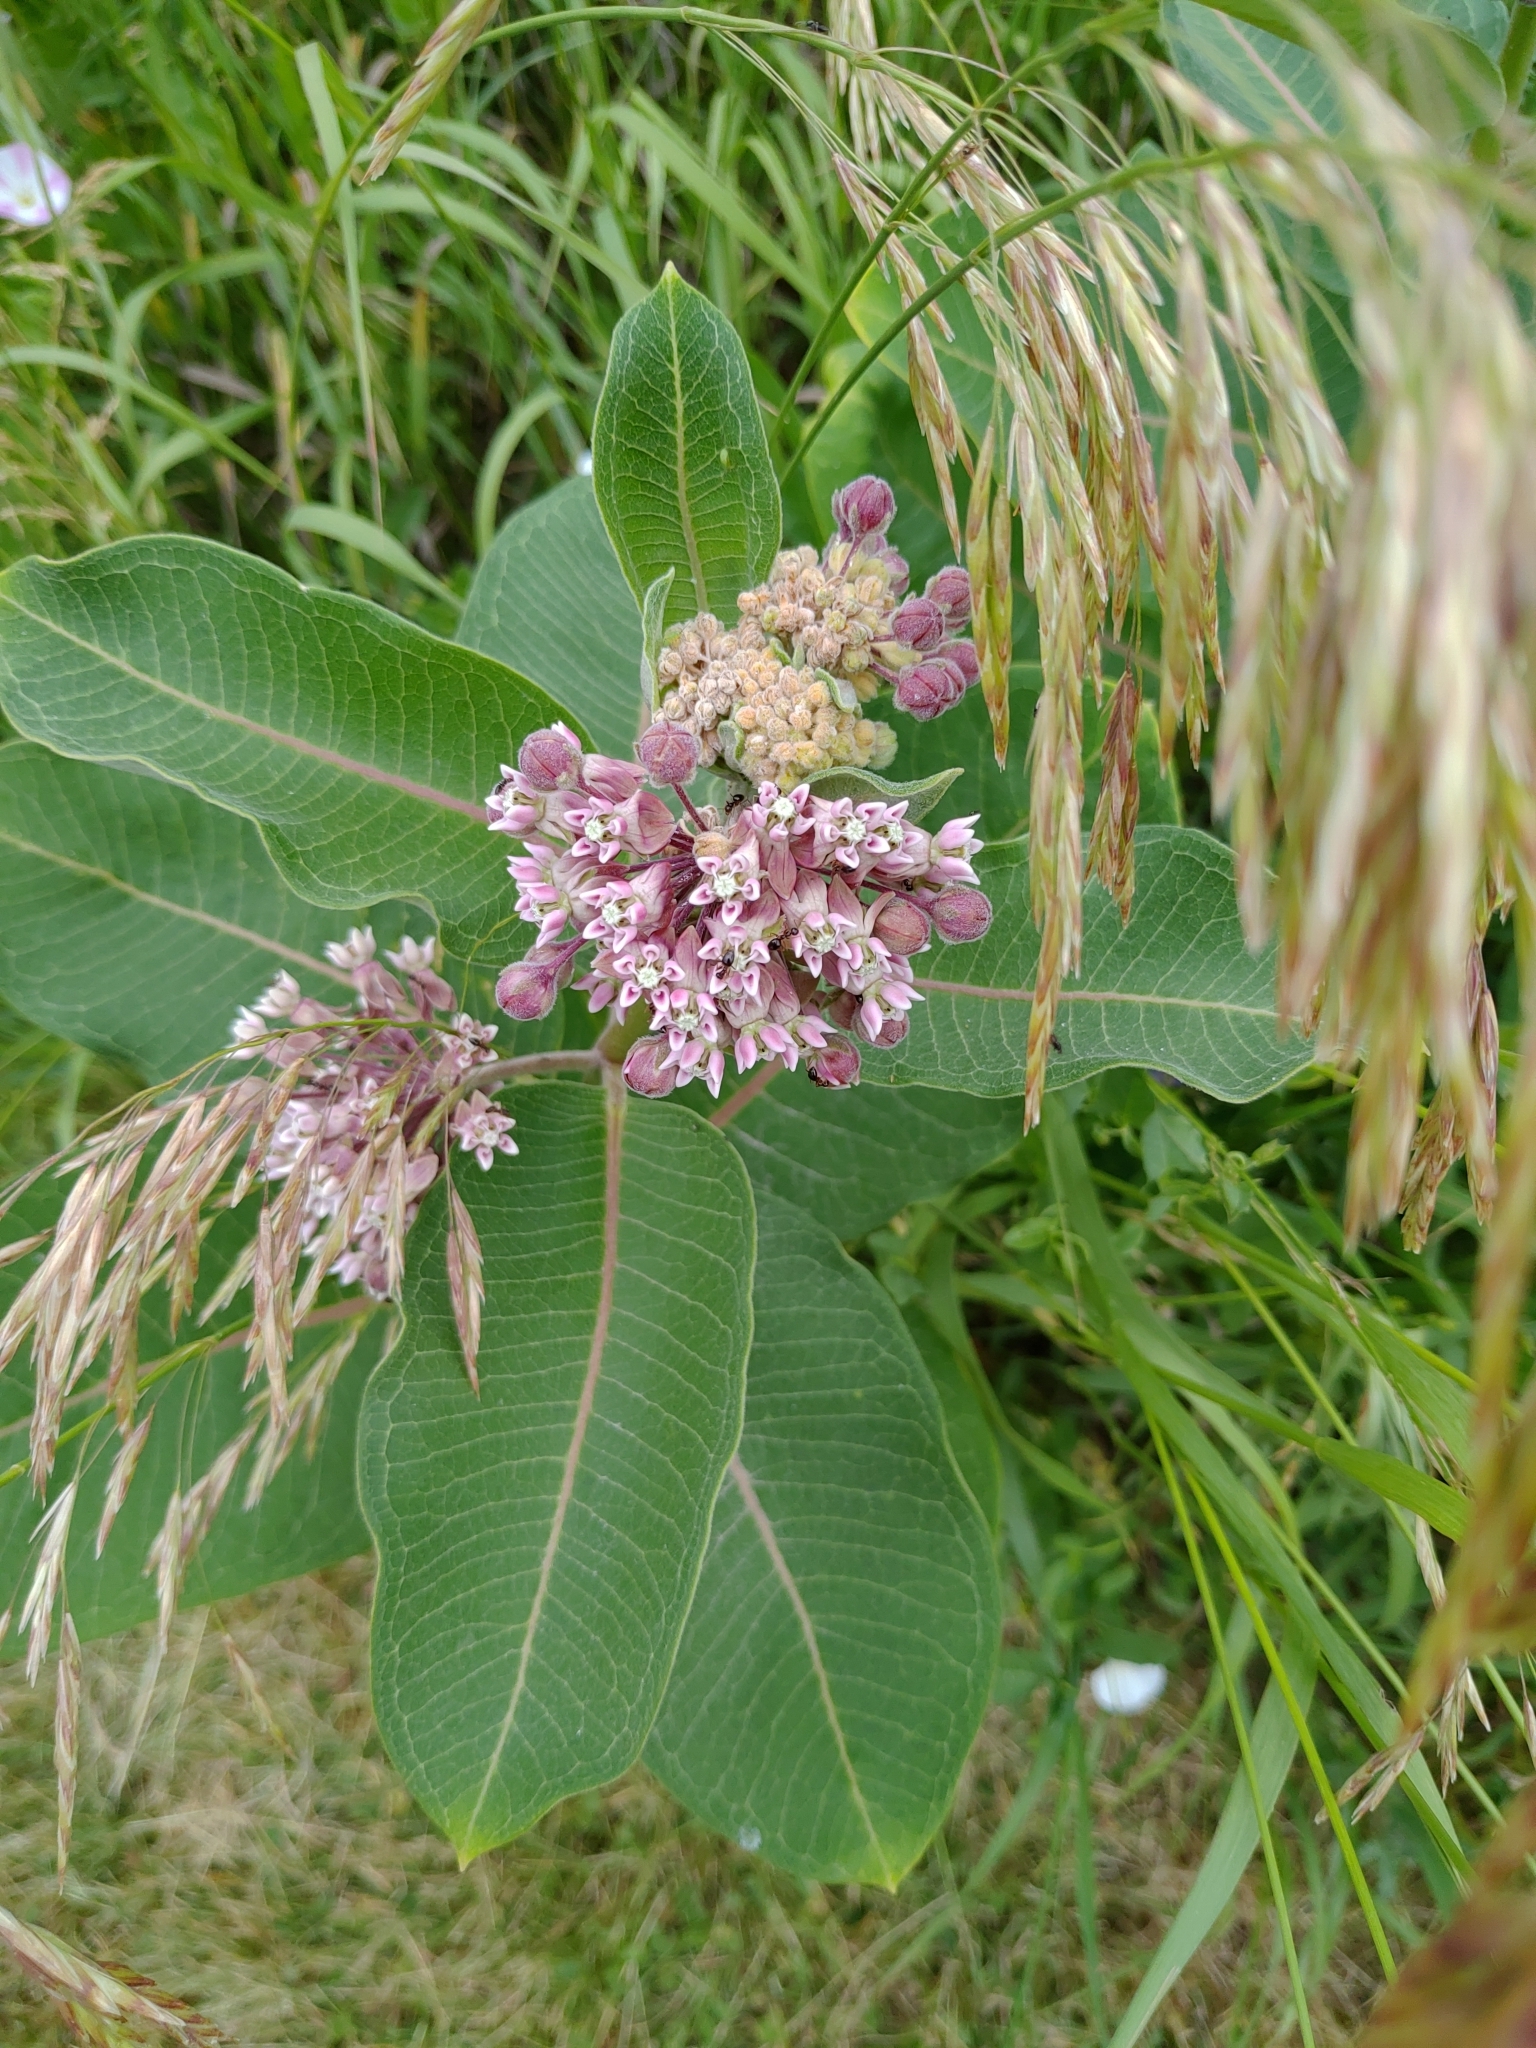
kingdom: Plantae
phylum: Tracheophyta
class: Magnoliopsida
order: Gentianales
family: Apocynaceae
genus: Asclepias
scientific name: Asclepias syriaca
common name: Common milkweed
